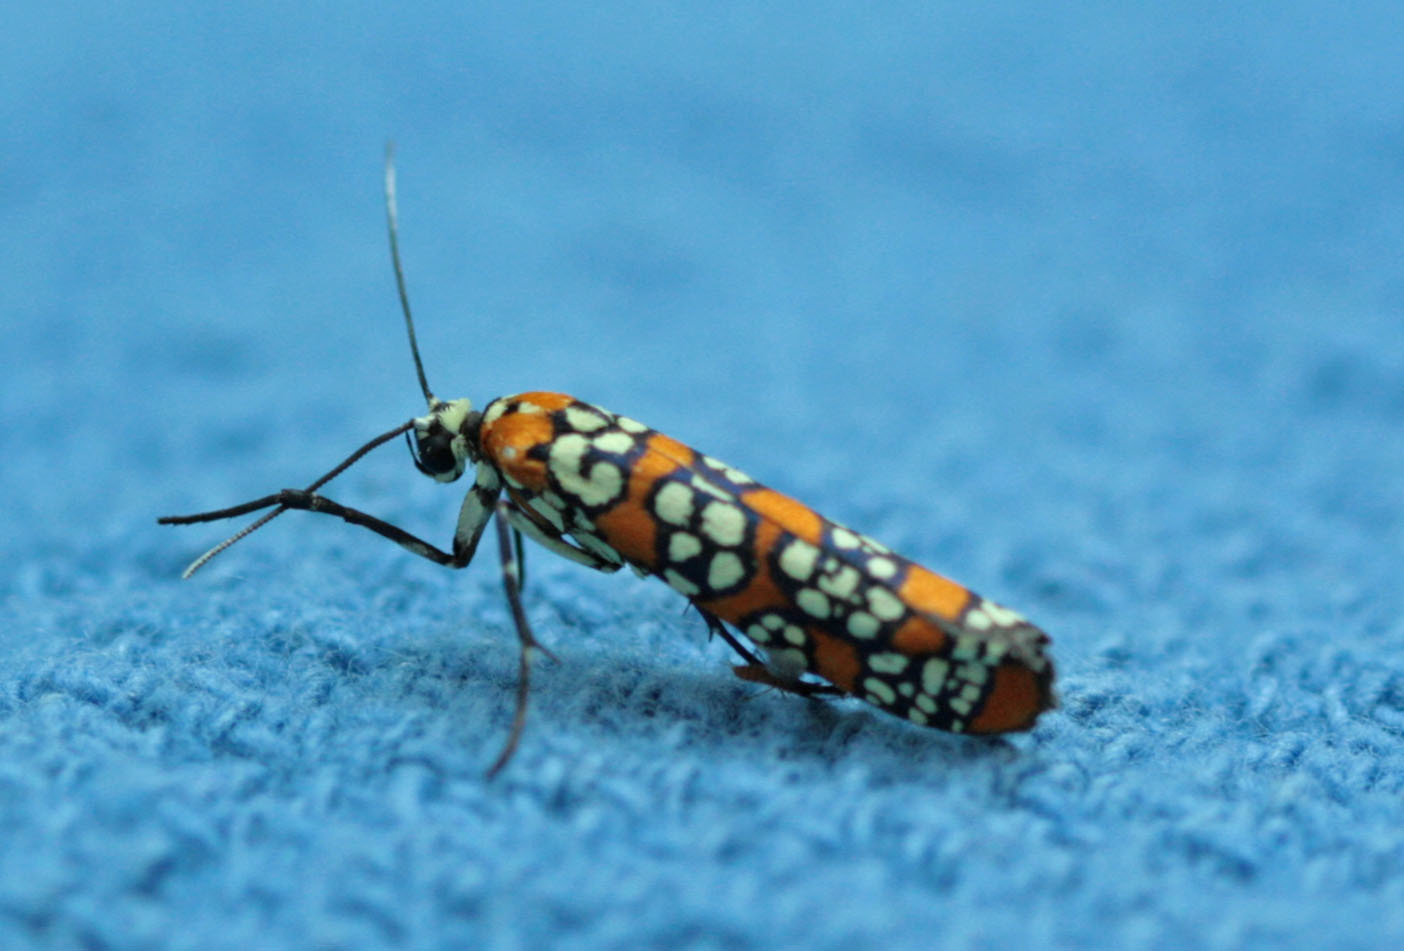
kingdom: Animalia
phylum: Arthropoda
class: Insecta
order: Lepidoptera
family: Attevidae
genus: Atteva
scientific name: Atteva punctella
